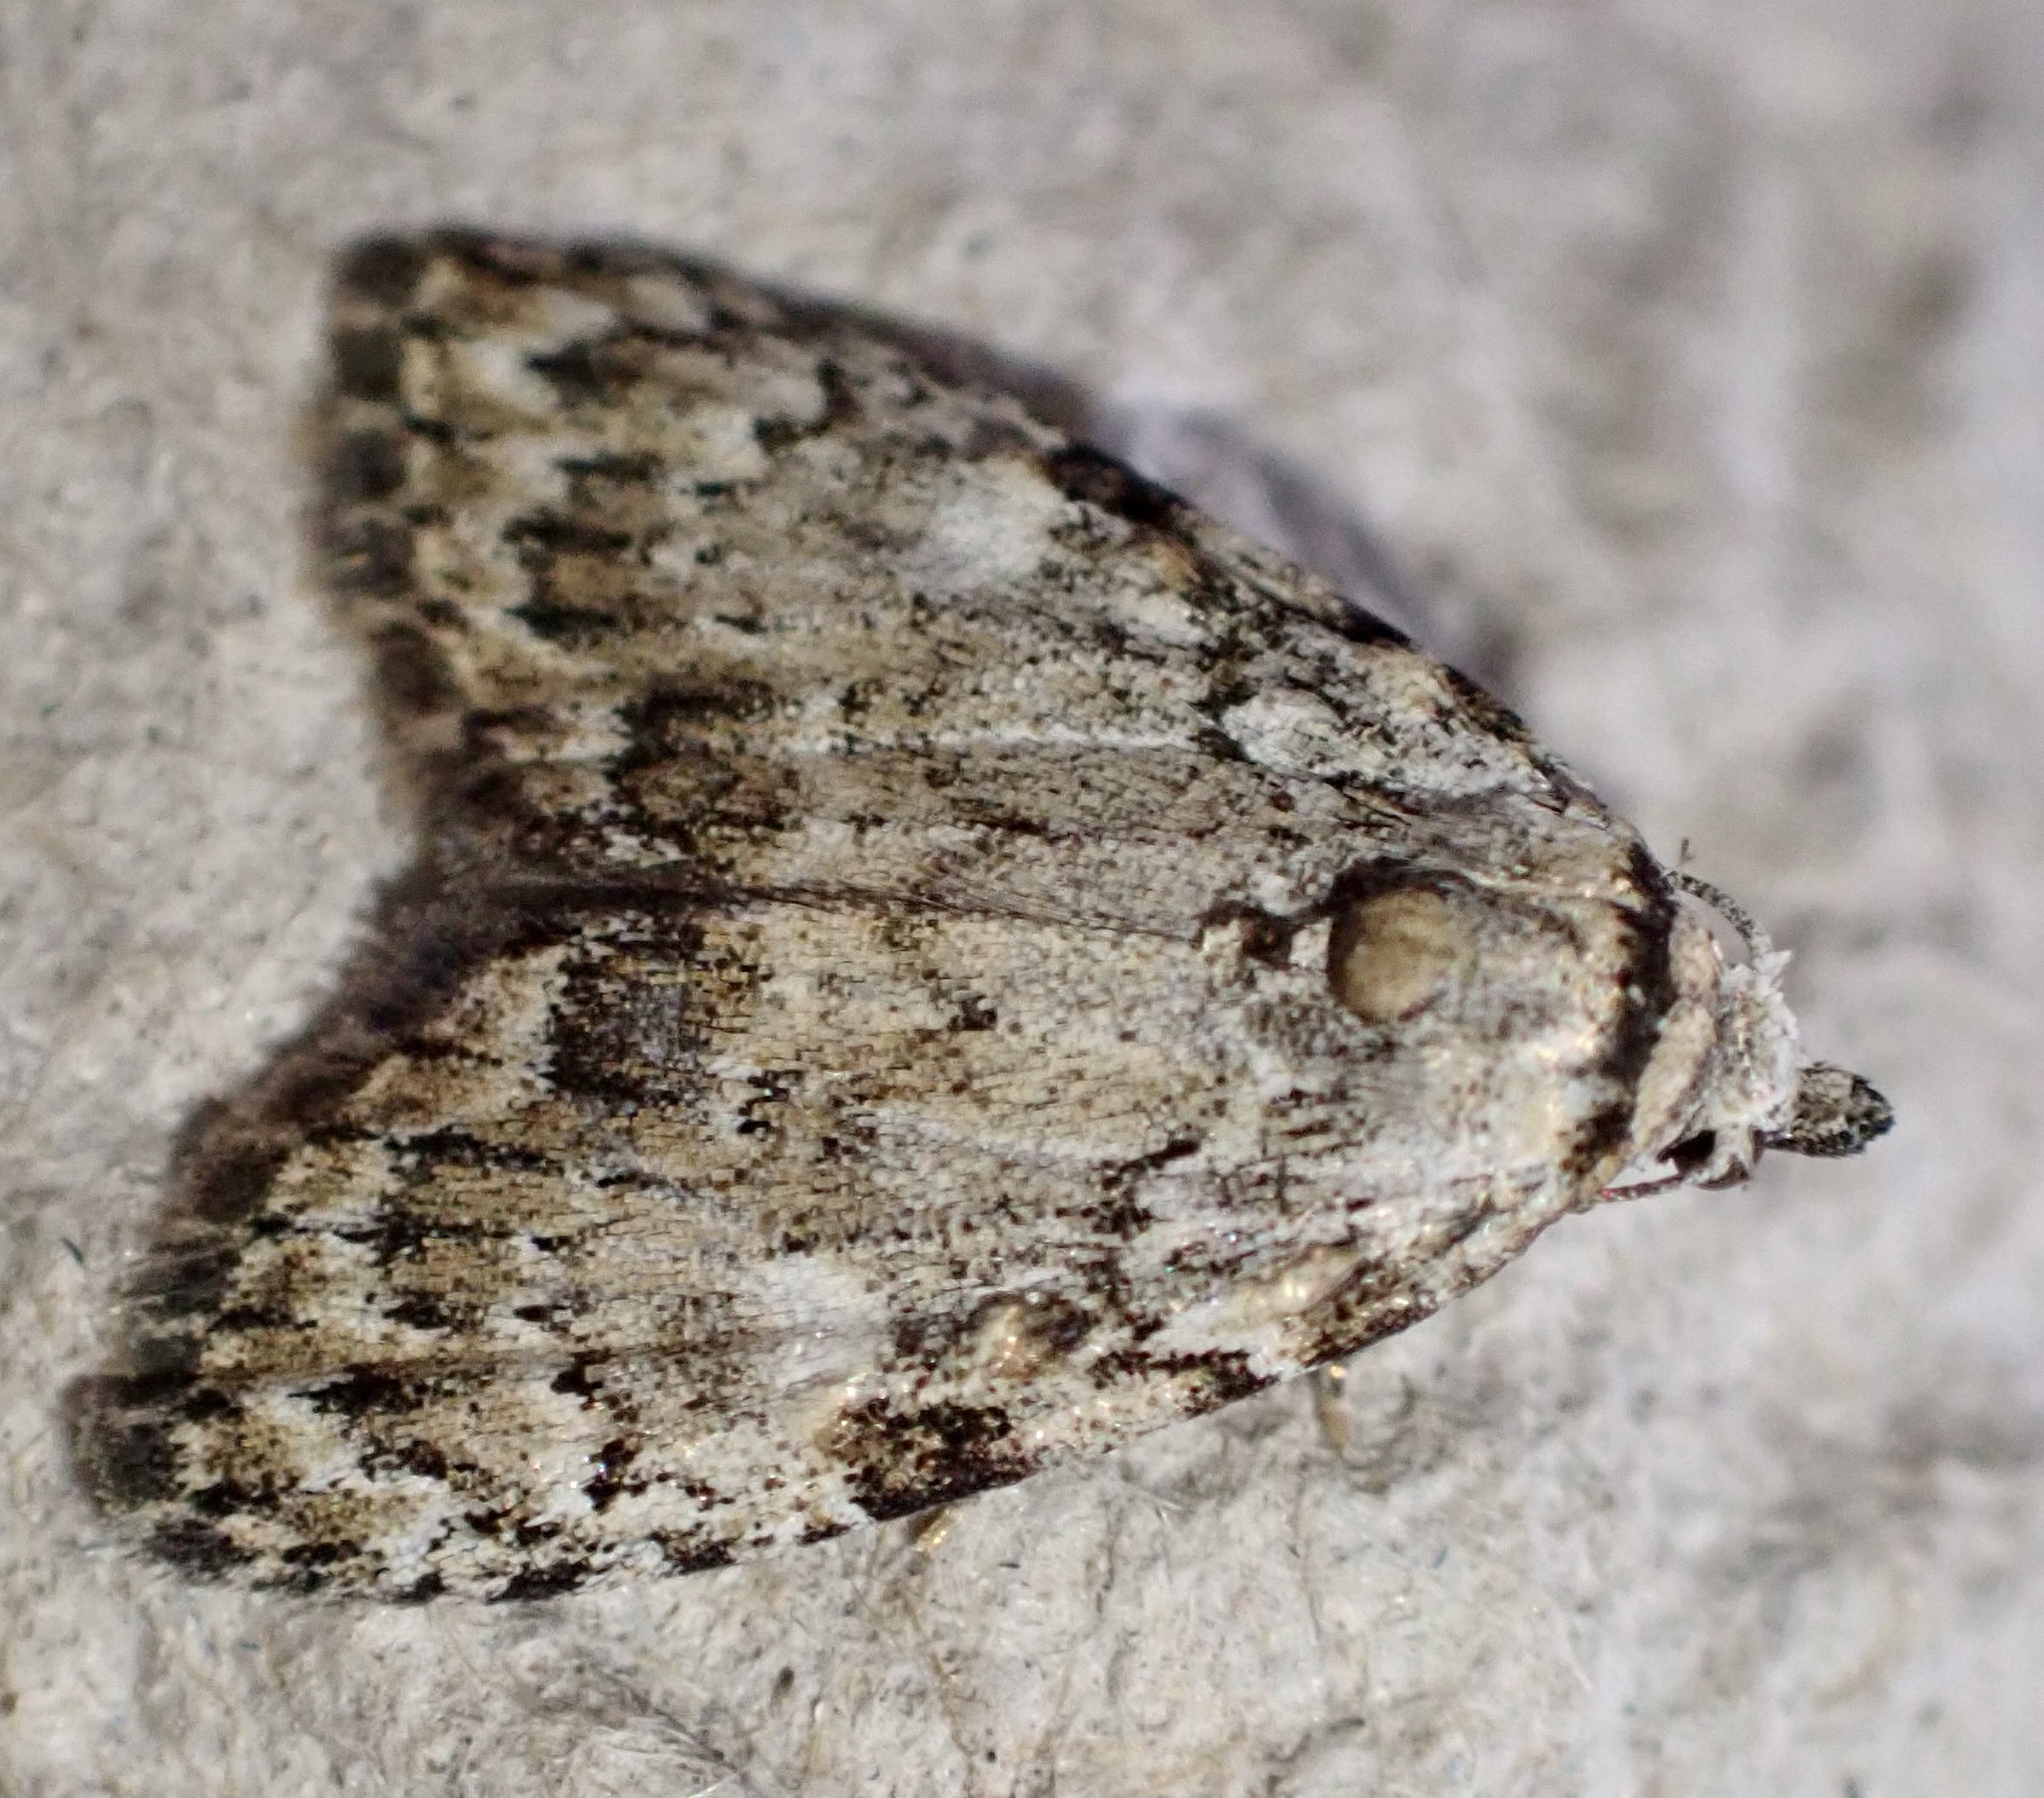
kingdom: Animalia
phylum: Arthropoda
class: Insecta
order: Lepidoptera
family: Nolidae
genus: Meganola
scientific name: Meganola strigula
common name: Small black arches
